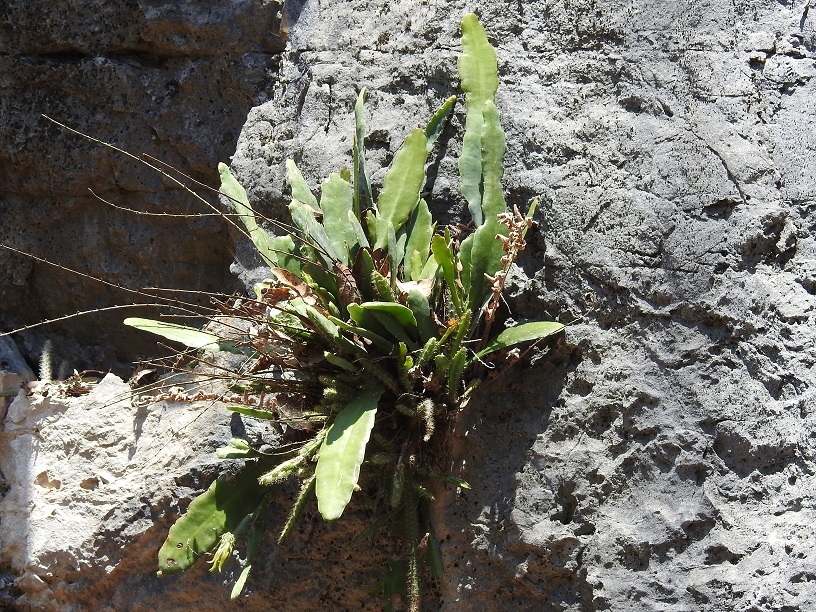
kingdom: Plantae
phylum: Tracheophyta
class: Magnoliopsida
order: Caryophyllales
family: Cactaceae
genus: Disocactus
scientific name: Disocactus crenatus
